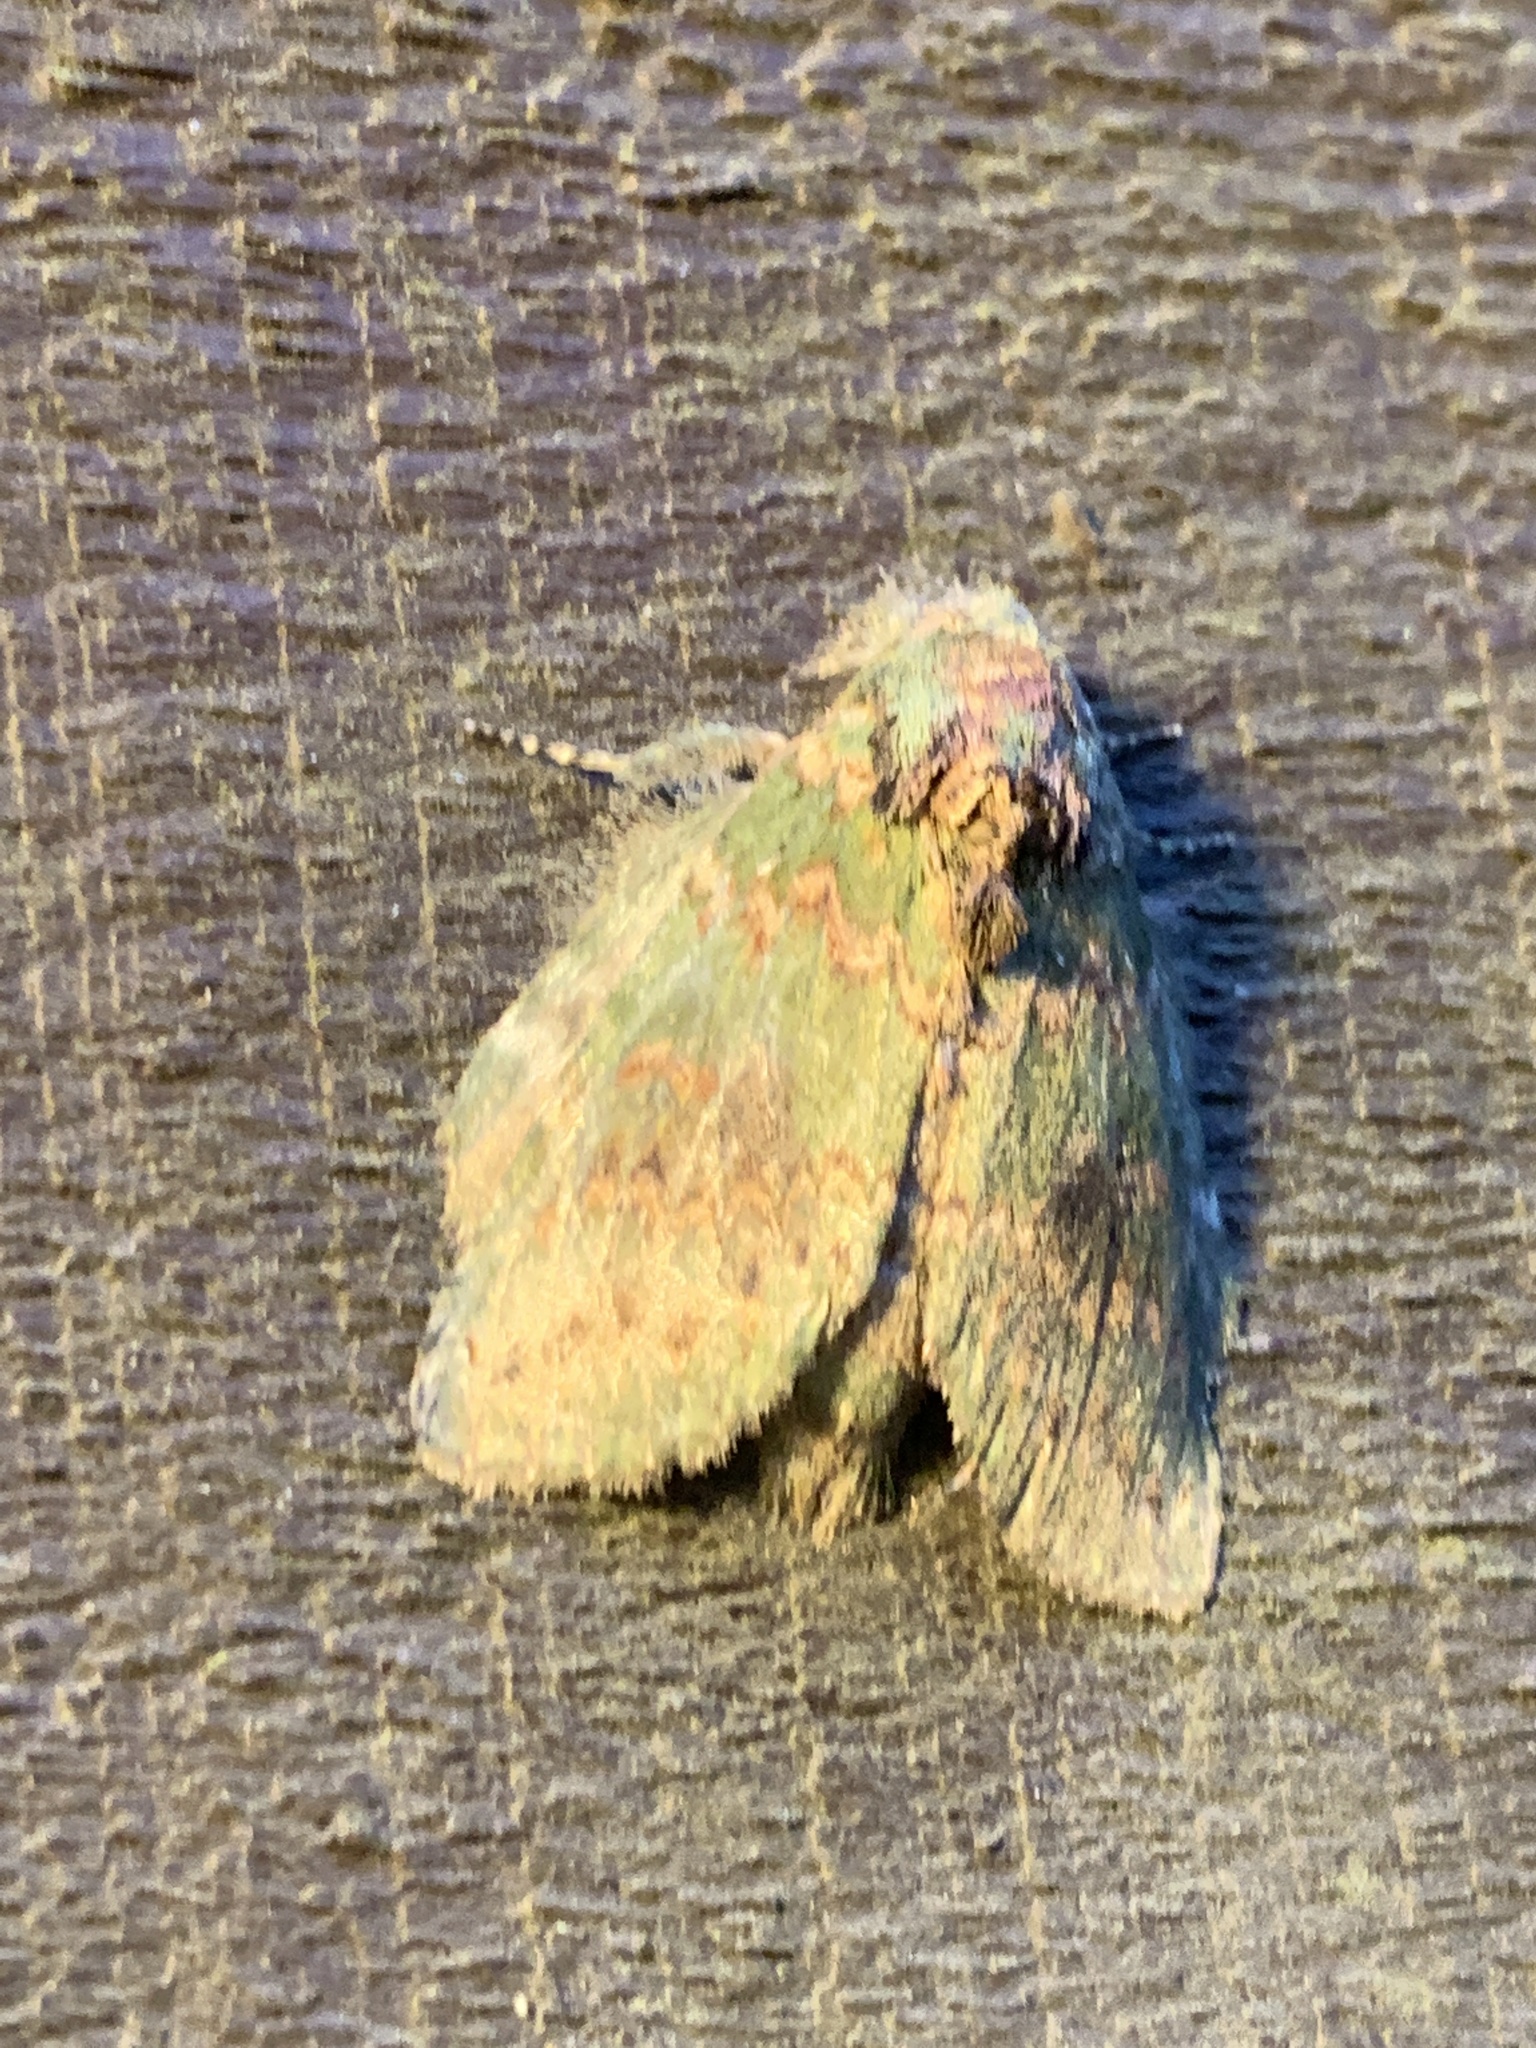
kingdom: Animalia
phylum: Arthropoda
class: Insecta
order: Lepidoptera
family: Notodontidae
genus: Disphragis
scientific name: Disphragis Cecrita biundata
